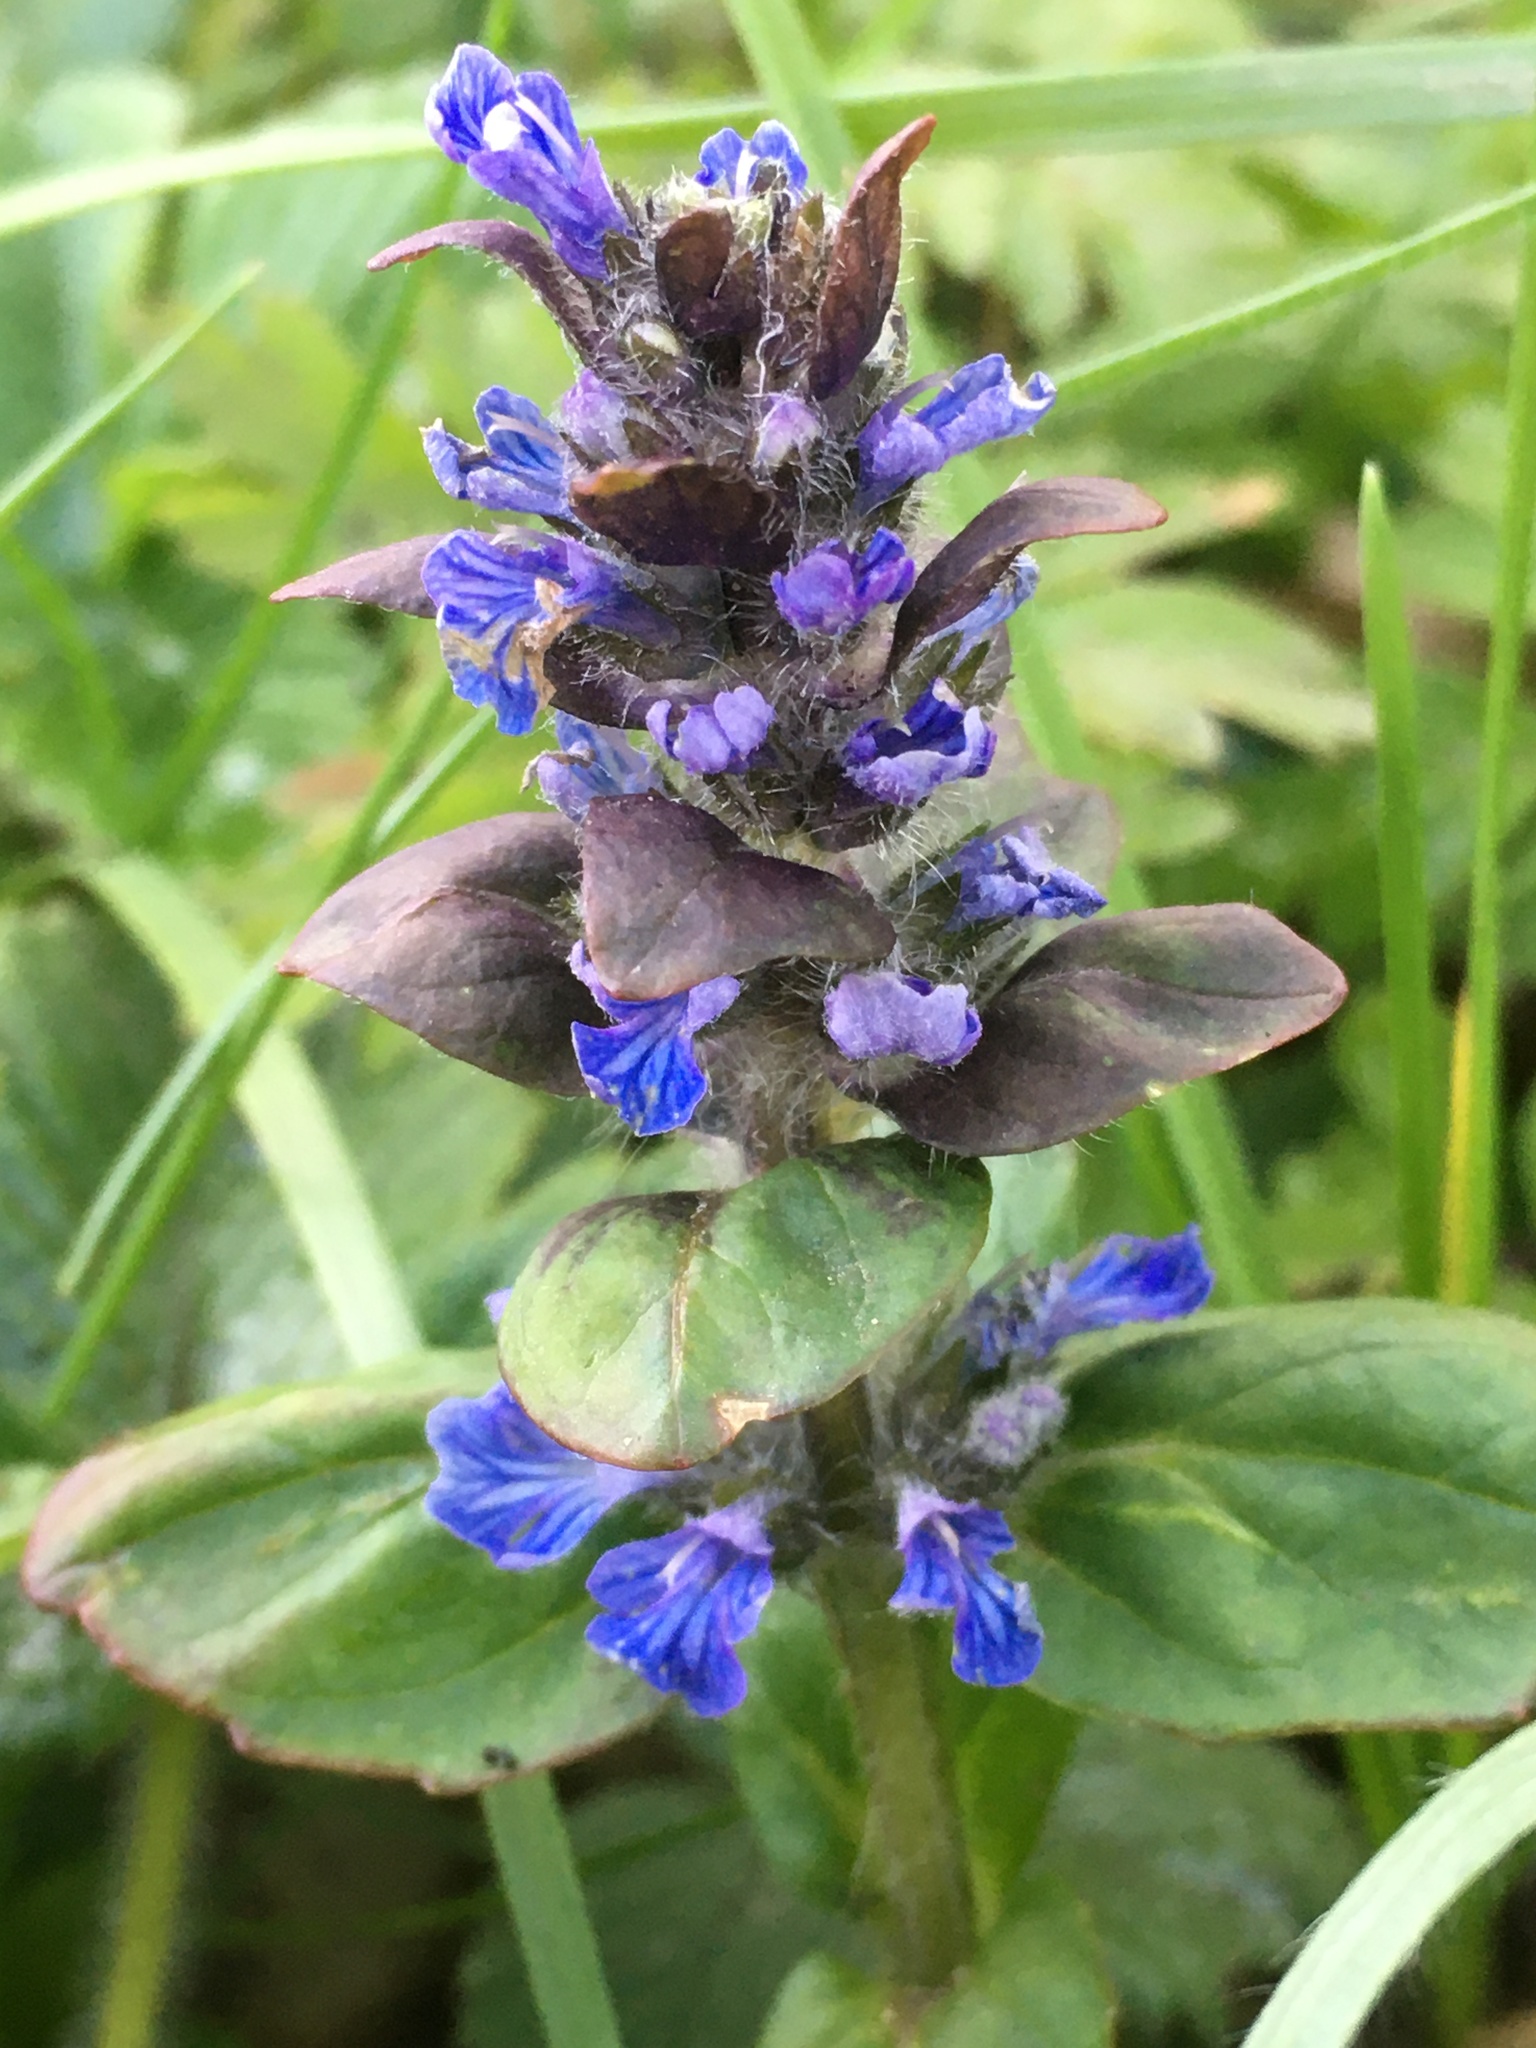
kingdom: Plantae
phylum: Tracheophyta
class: Magnoliopsida
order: Lamiales
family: Lamiaceae
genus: Ajuga
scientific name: Ajuga reptans
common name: Bugle
